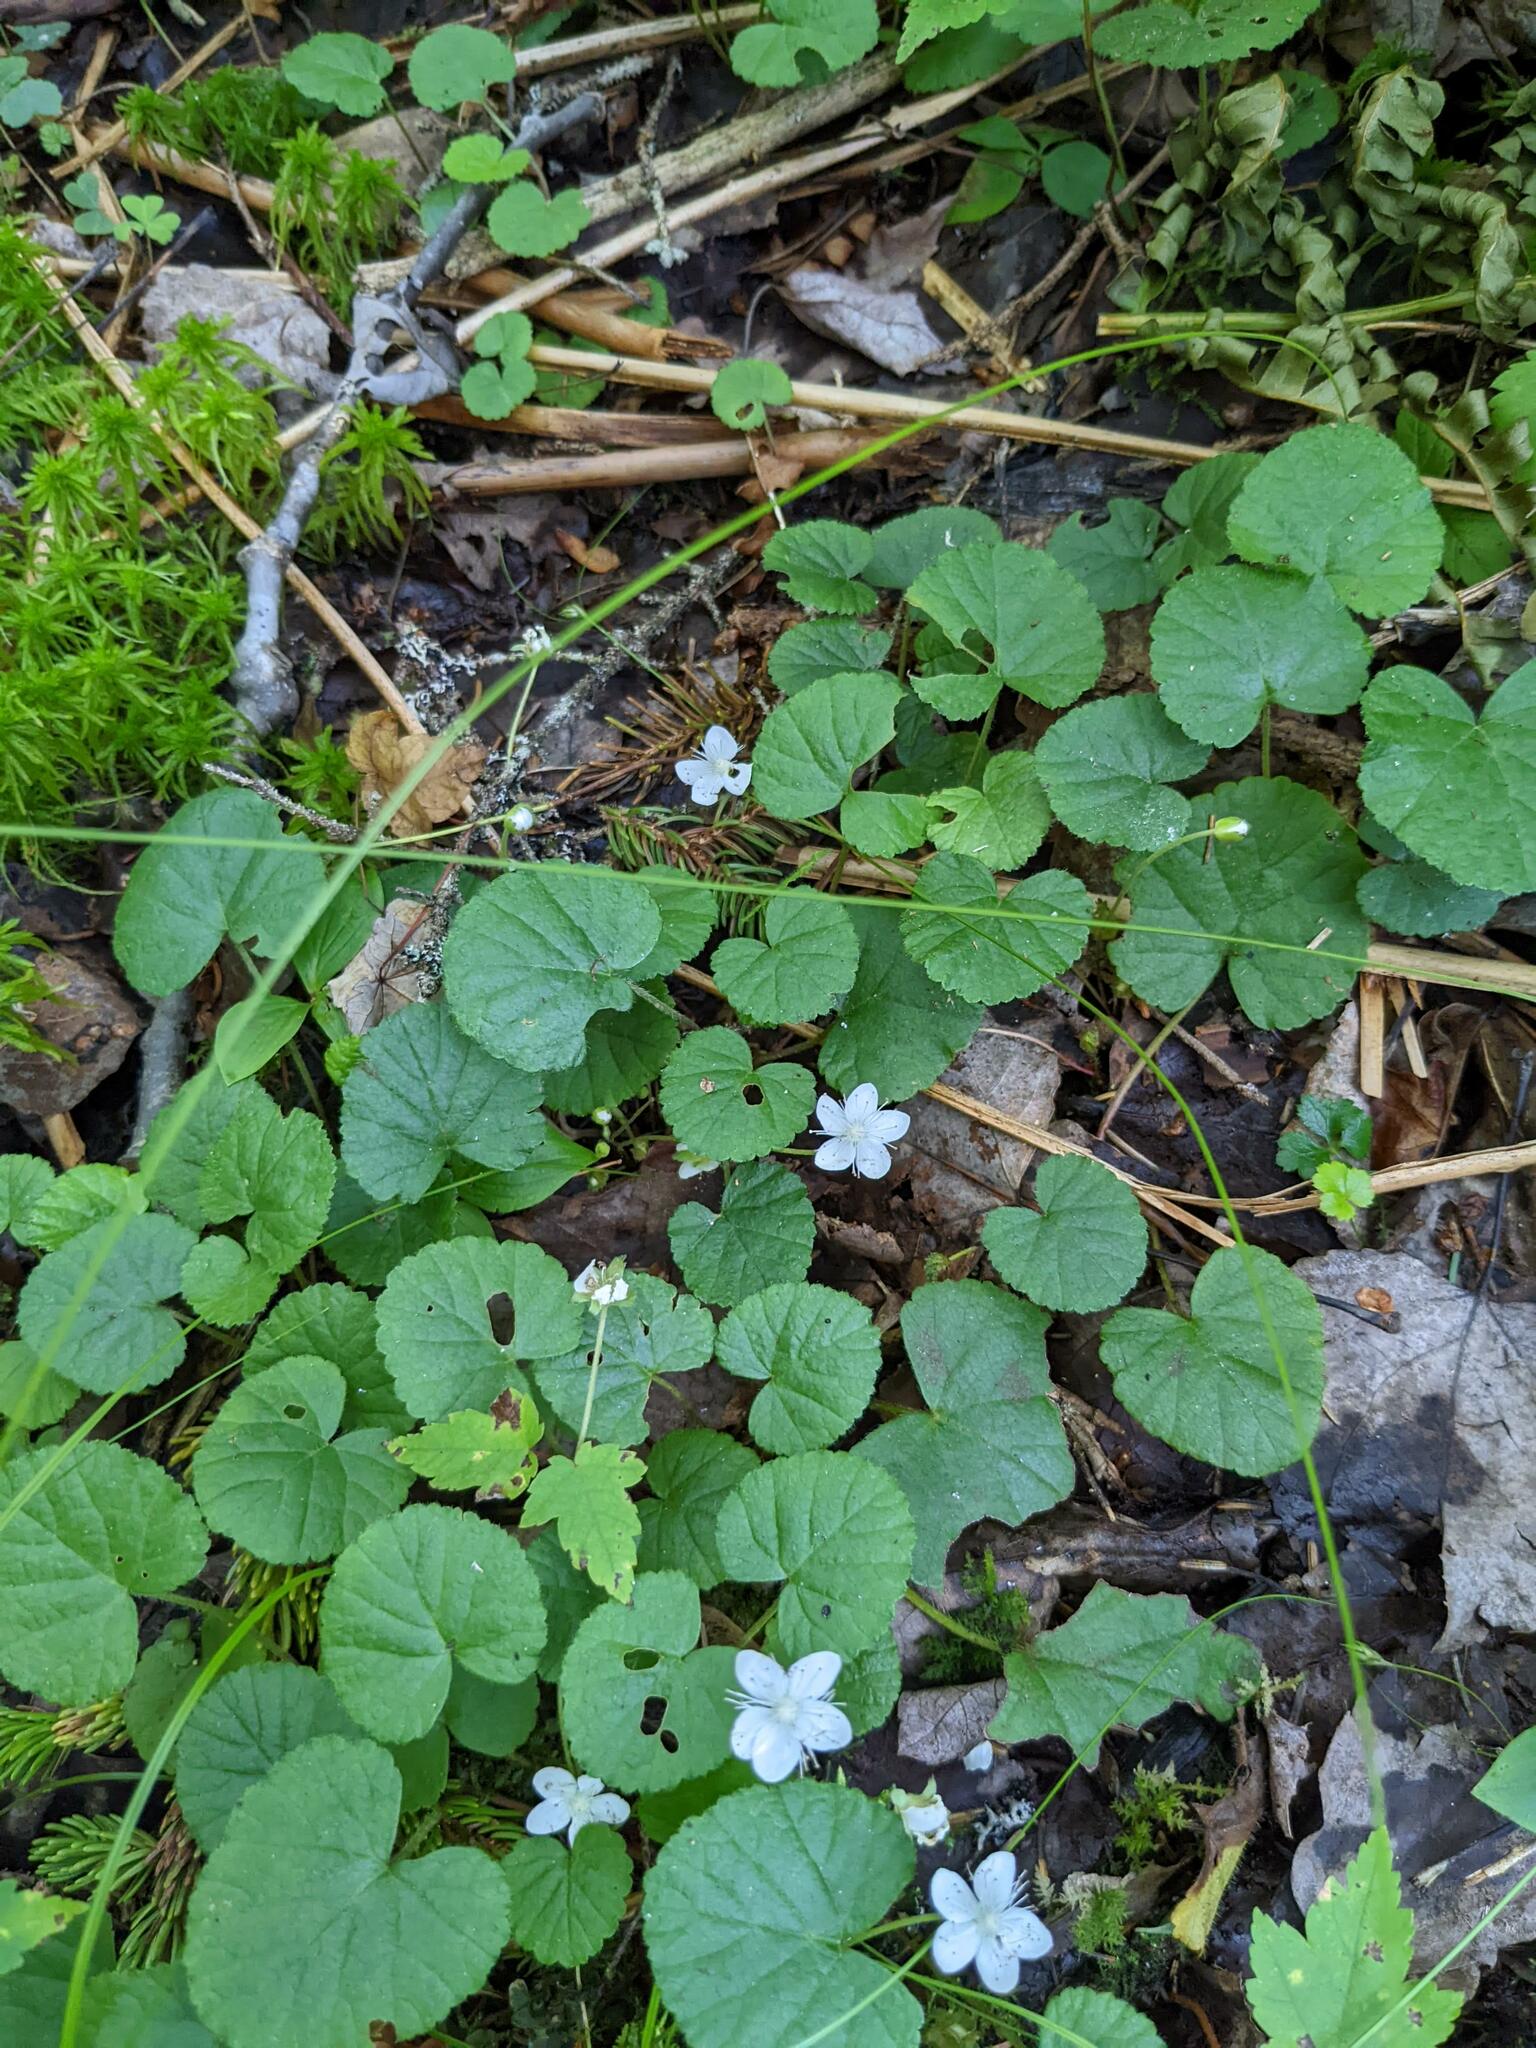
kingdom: Plantae
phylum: Tracheophyta
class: Magnoliopsida
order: Rosales
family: Rosaceae
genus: Dalibarda
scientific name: Dalibarda repens
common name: Dewdrop
